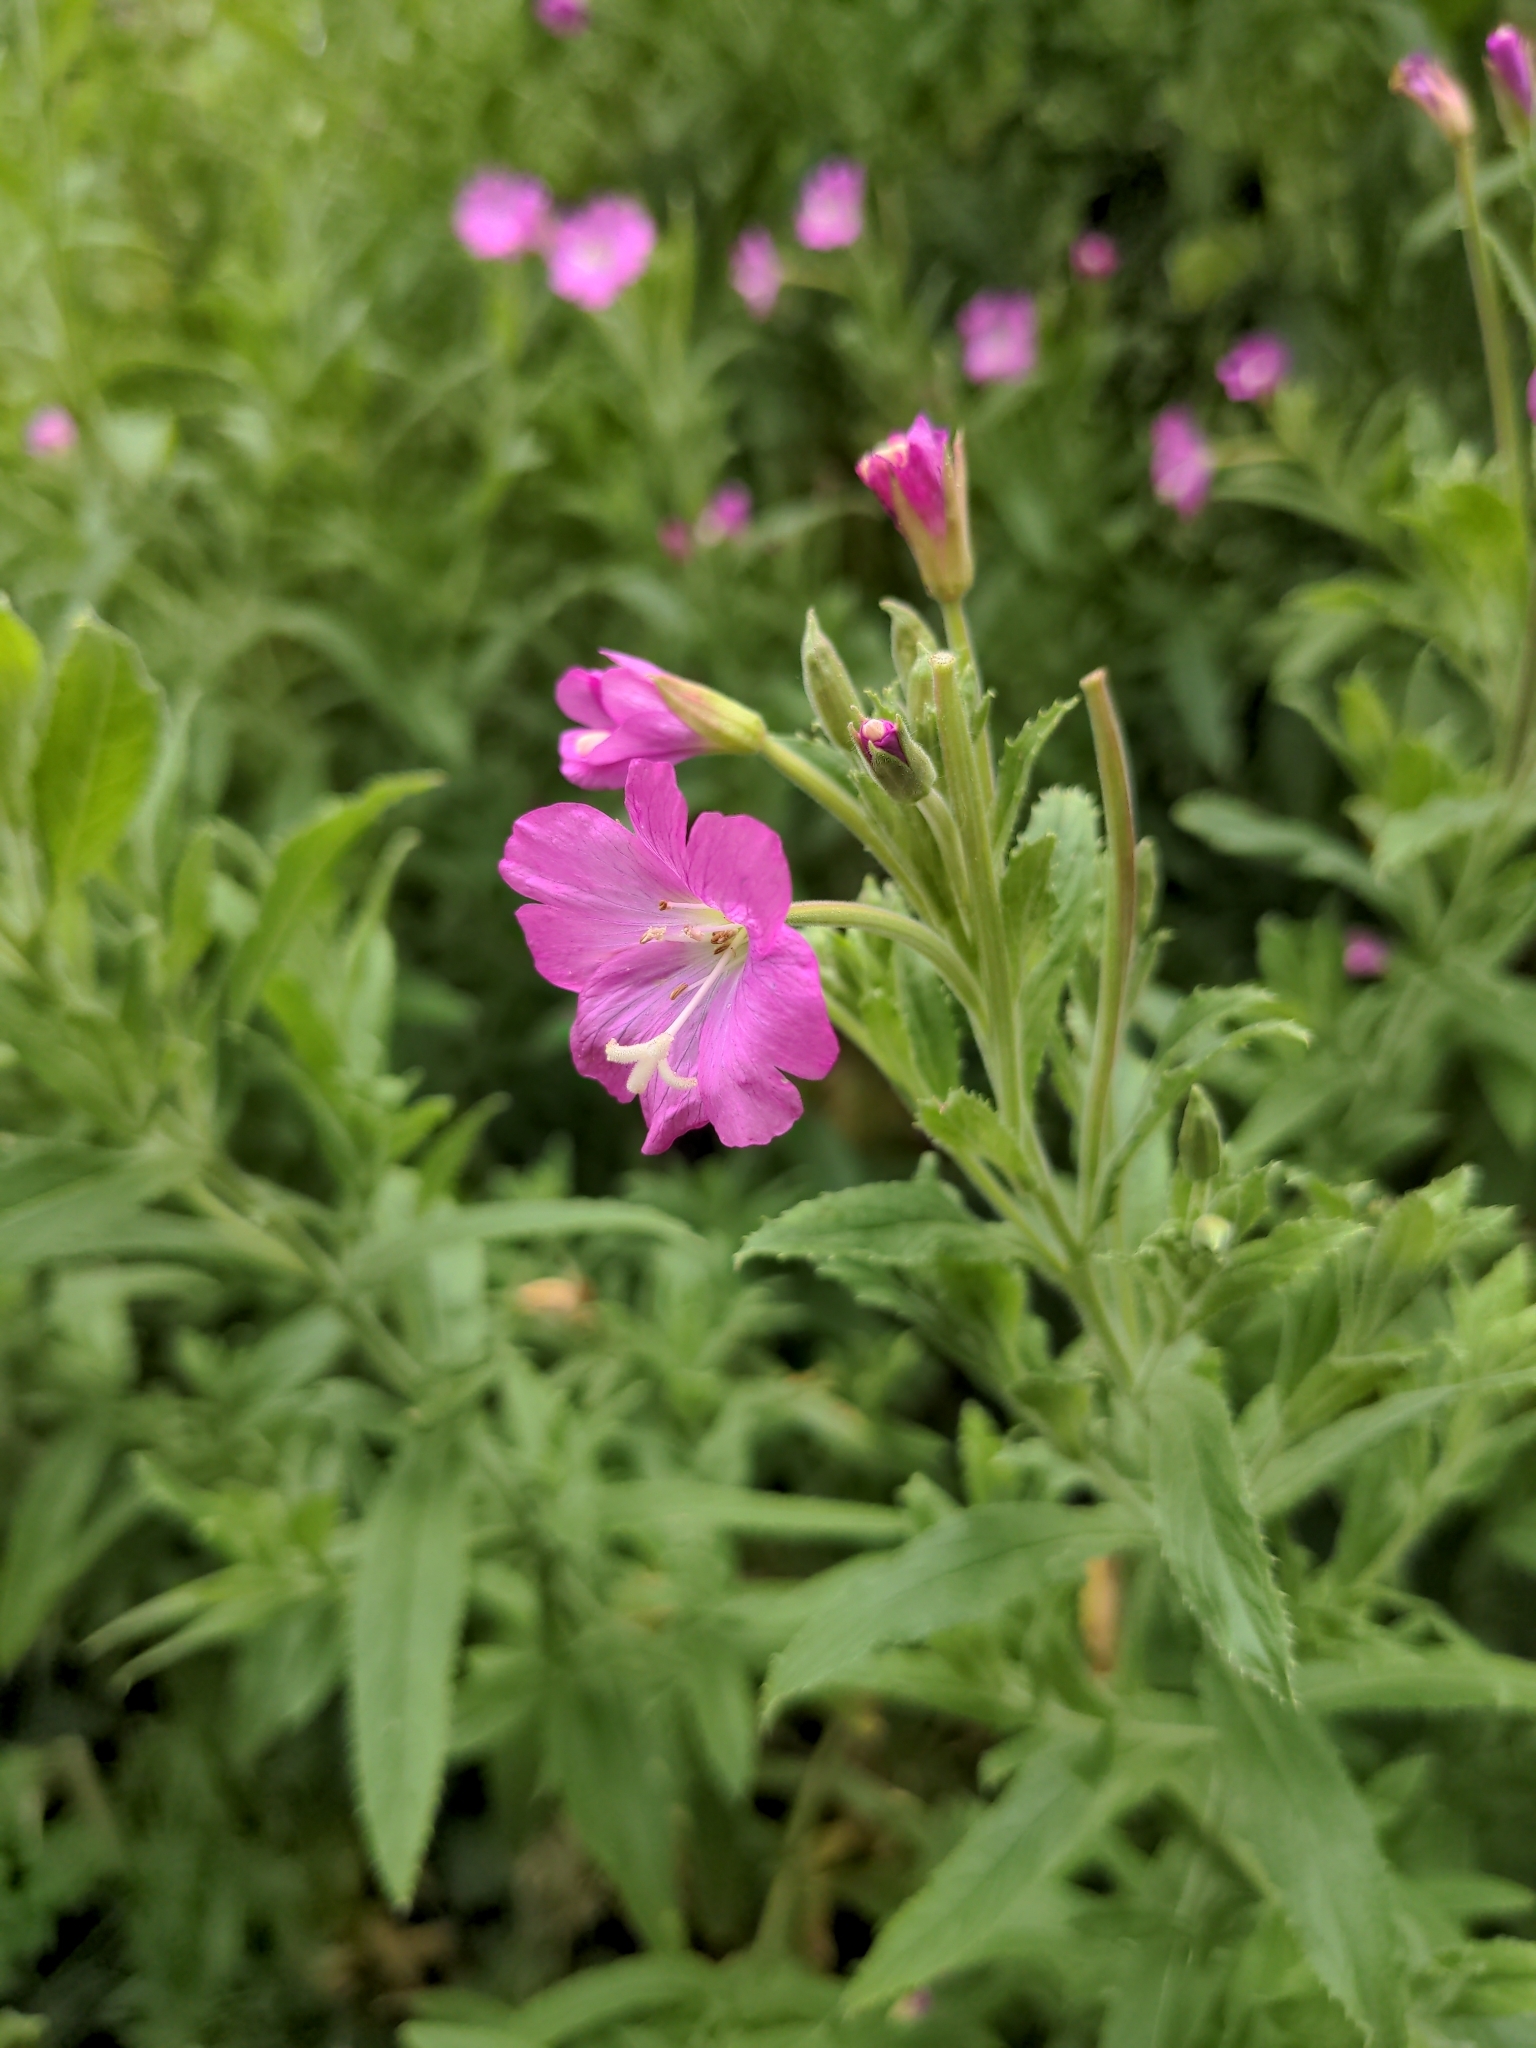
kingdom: Plantae
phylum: Tracheophyta
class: Magnoliopsida
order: Myrtales
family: Onagraceae
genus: Epilobium
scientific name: Epilobium hirsutum
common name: Great willowherb
